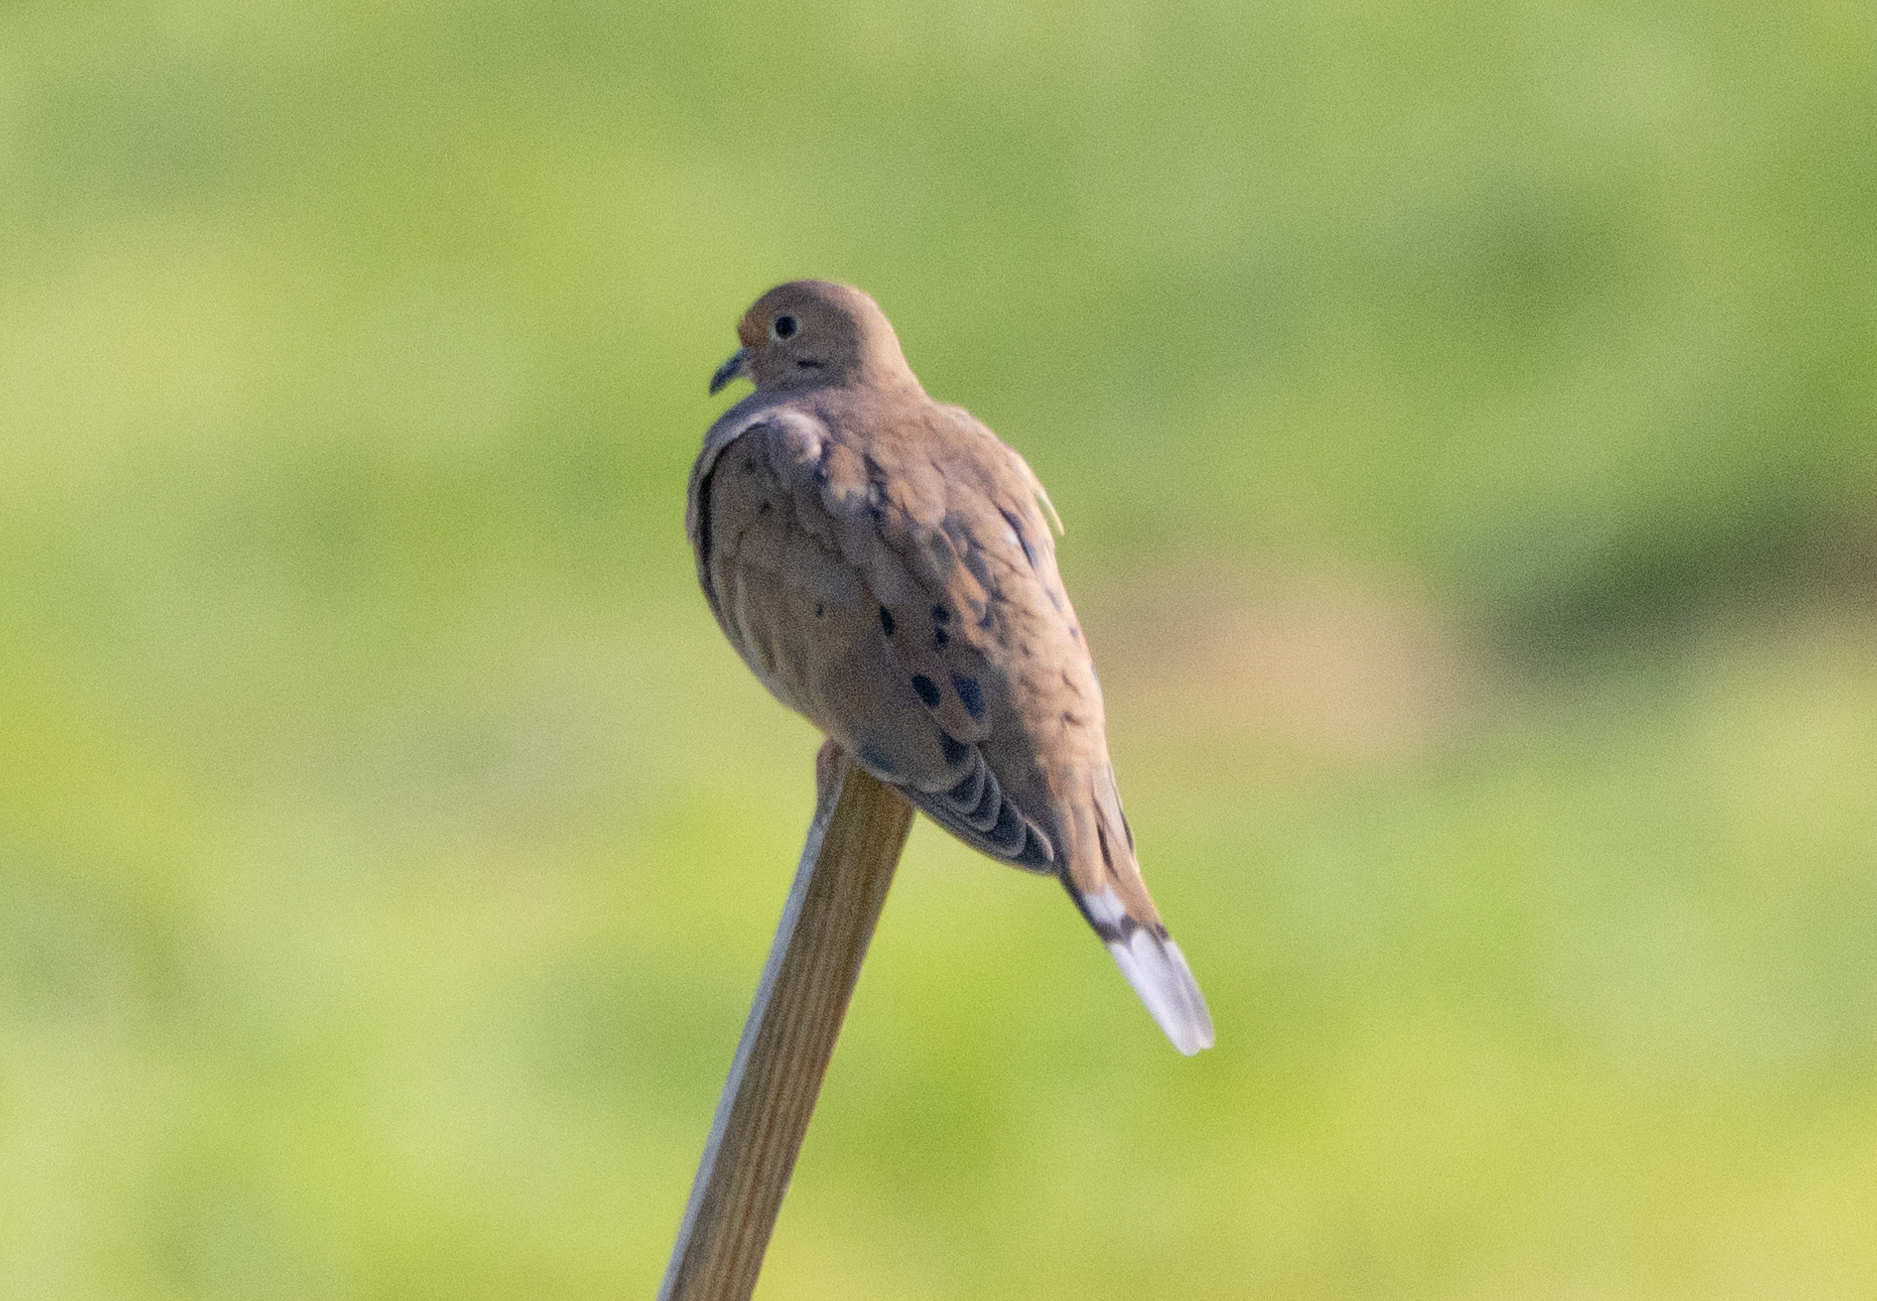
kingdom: Animalia
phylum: Chordata
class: Aves
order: Columbiformes
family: Columbidae
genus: Zenaida
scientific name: Zenaida macroura
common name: Mourning dove
